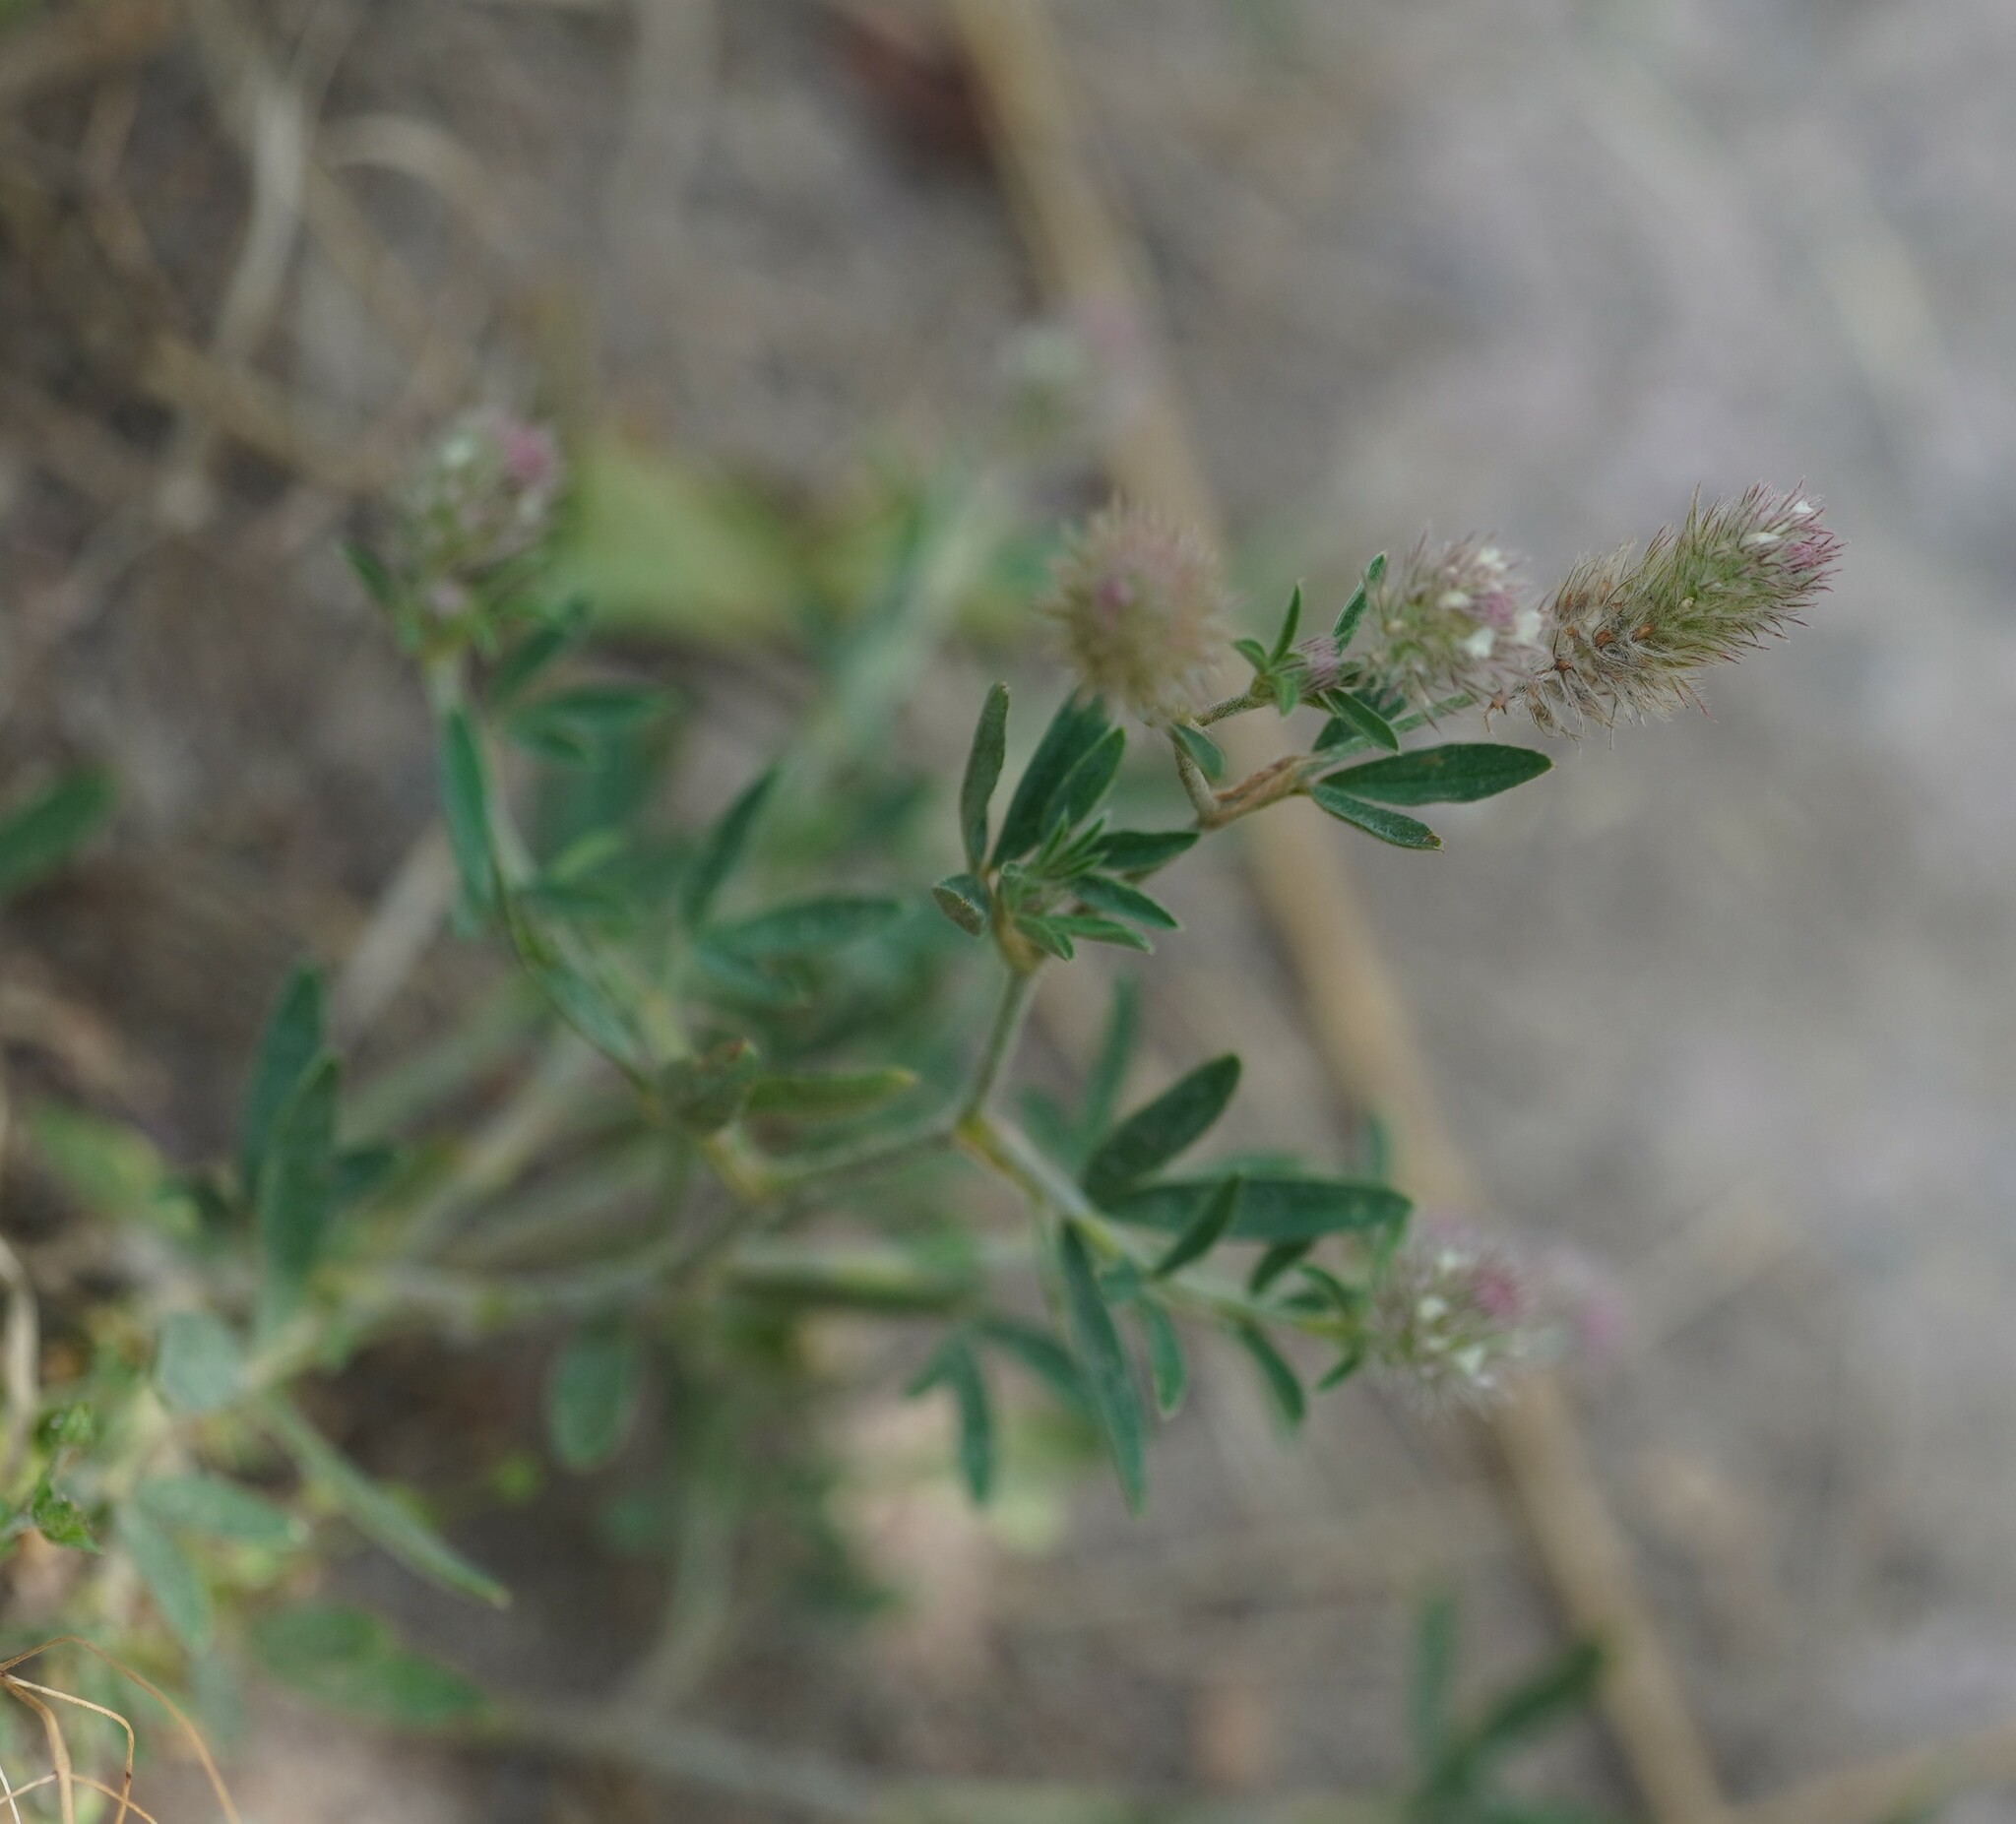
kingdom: Plantae
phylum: Tracheophyta
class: Magnoliopsida
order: Fabales
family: Fabaceae
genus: Trifolium
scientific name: Trifolium arvense
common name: Hare's-foot clover
